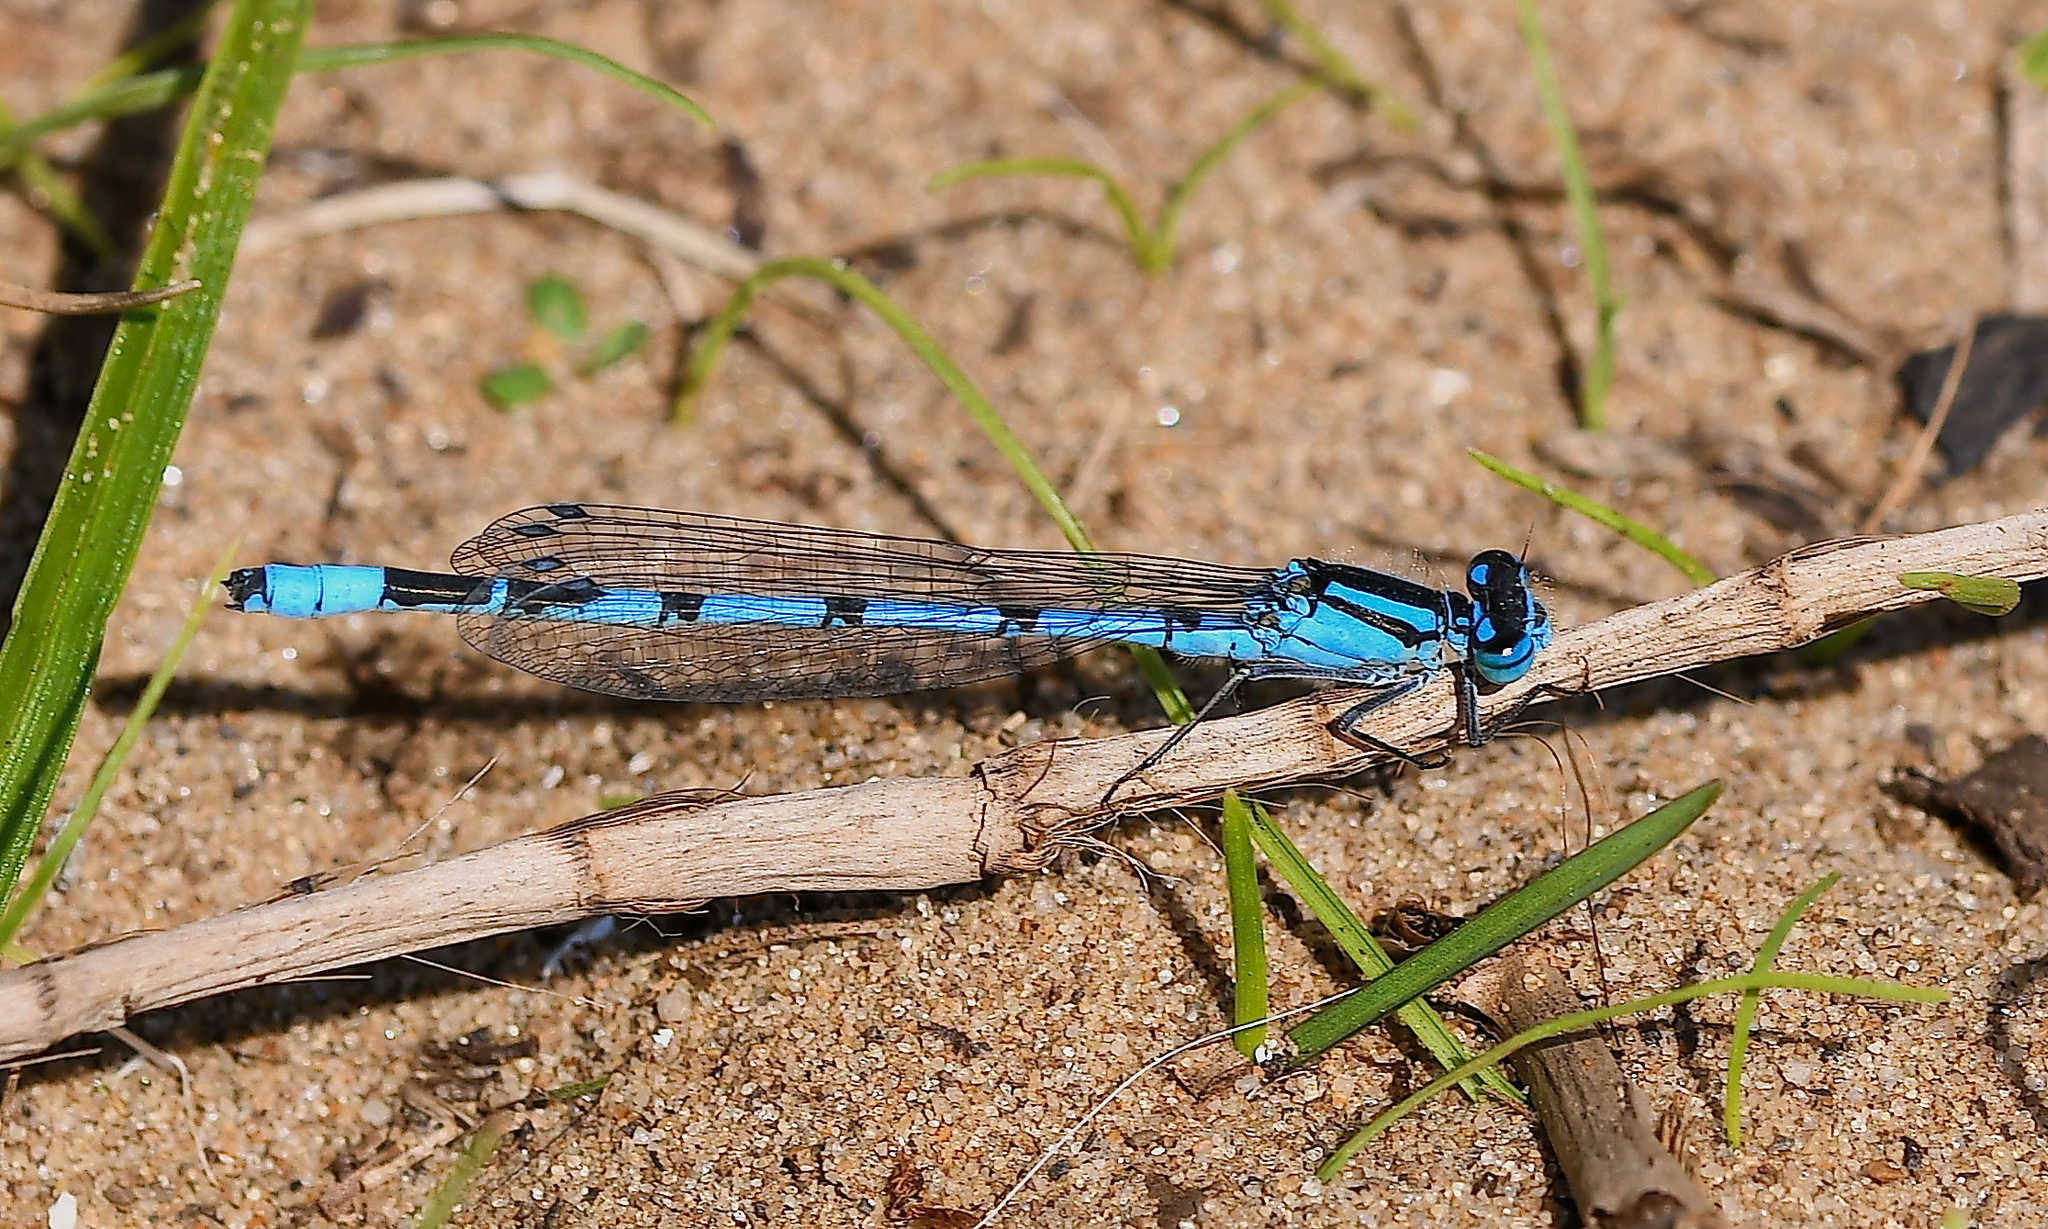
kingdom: Animalia
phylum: Arthropoda
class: Insecta
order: Odonata
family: Coenagrionidae
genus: Enallagma
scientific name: Enallagma cyathigerum
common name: Common blue damselfly
